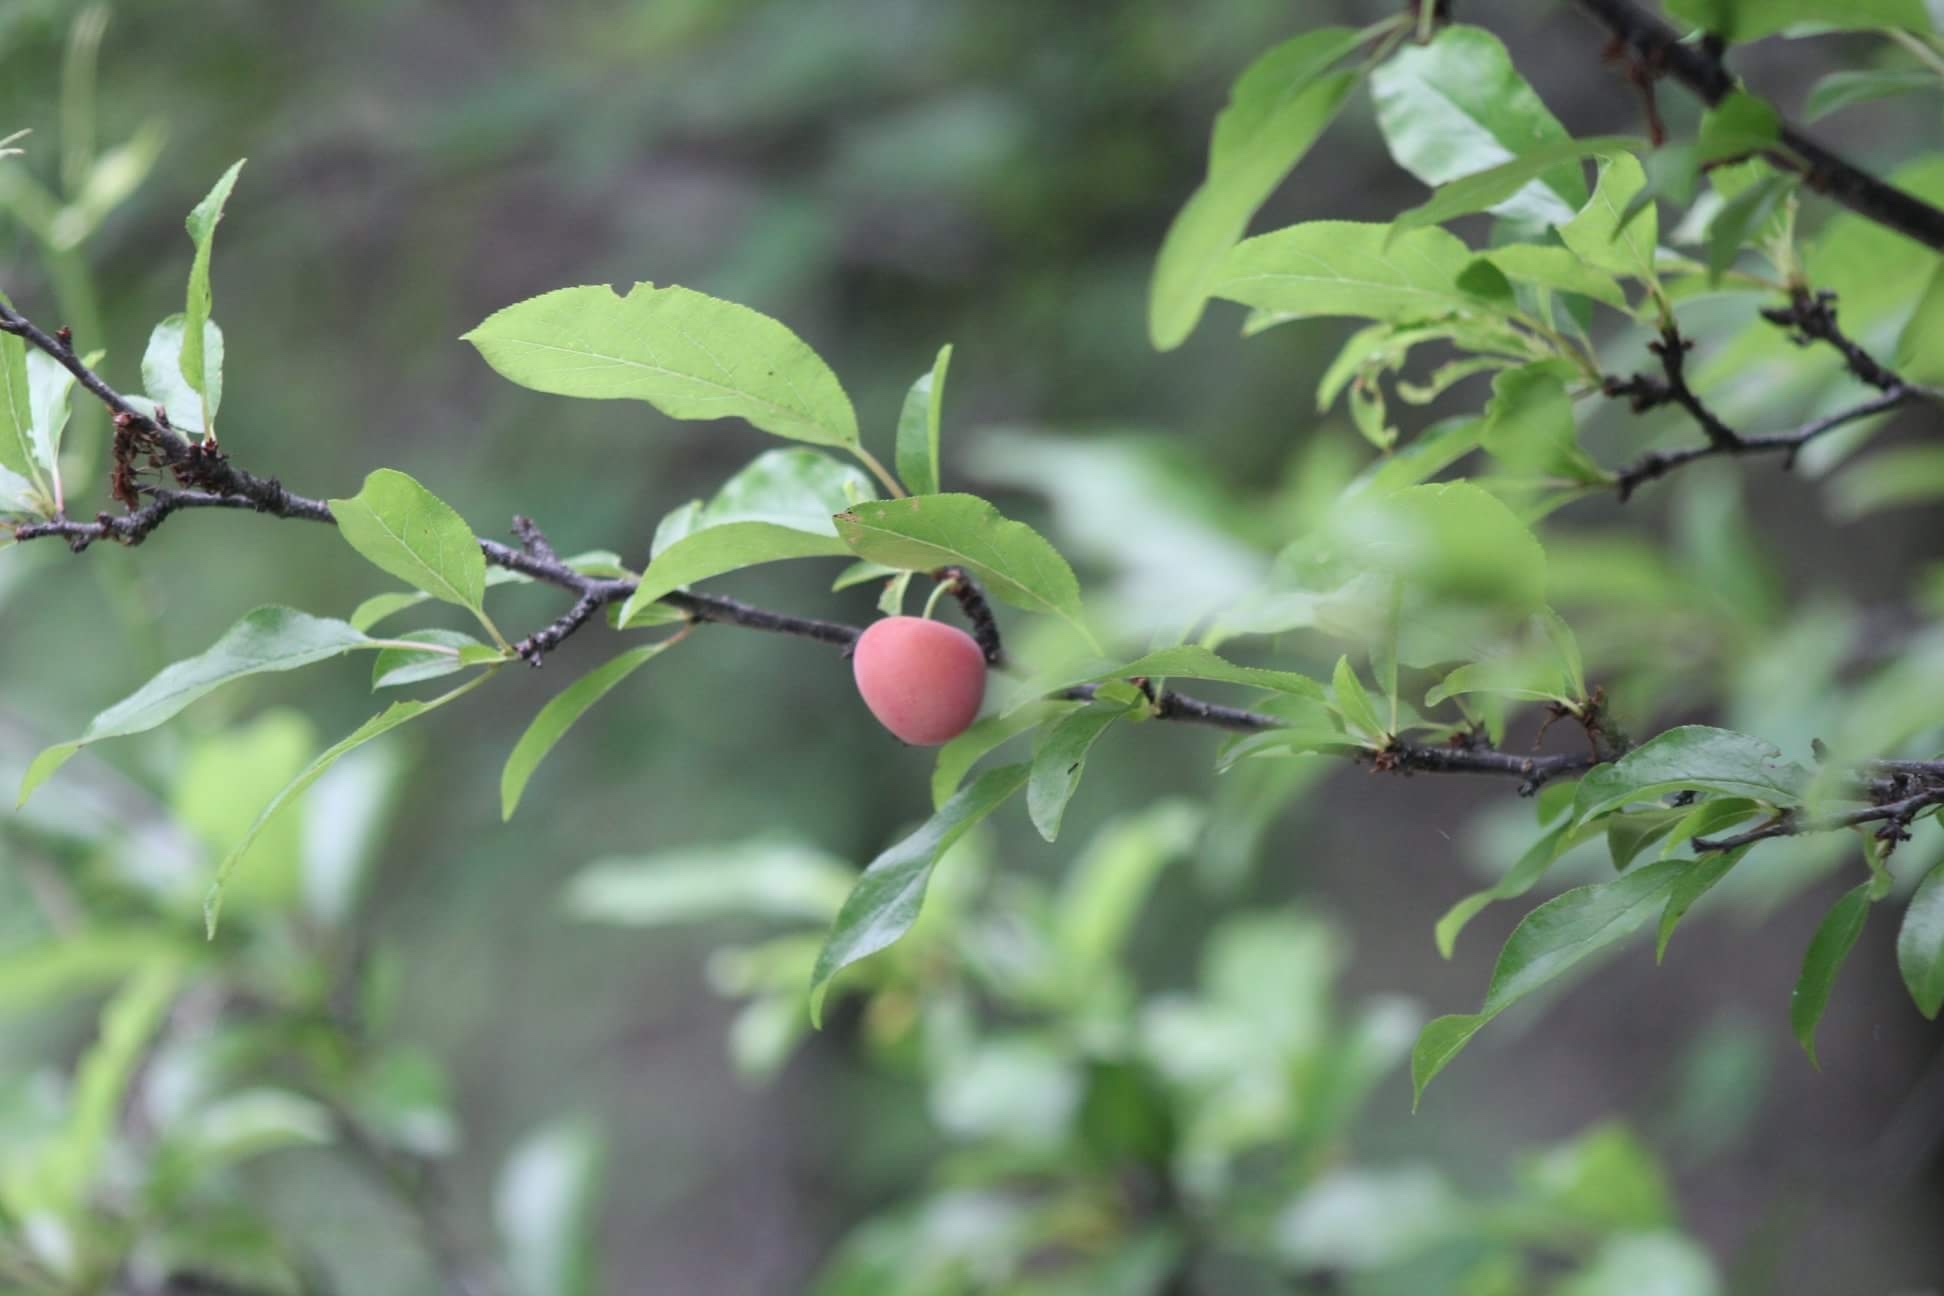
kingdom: Plantae
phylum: Tracheophyta
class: Magnoliopsida
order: Rosales
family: Rosaceae
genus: Prunus
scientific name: Prunus mexicana
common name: Mexican plum
